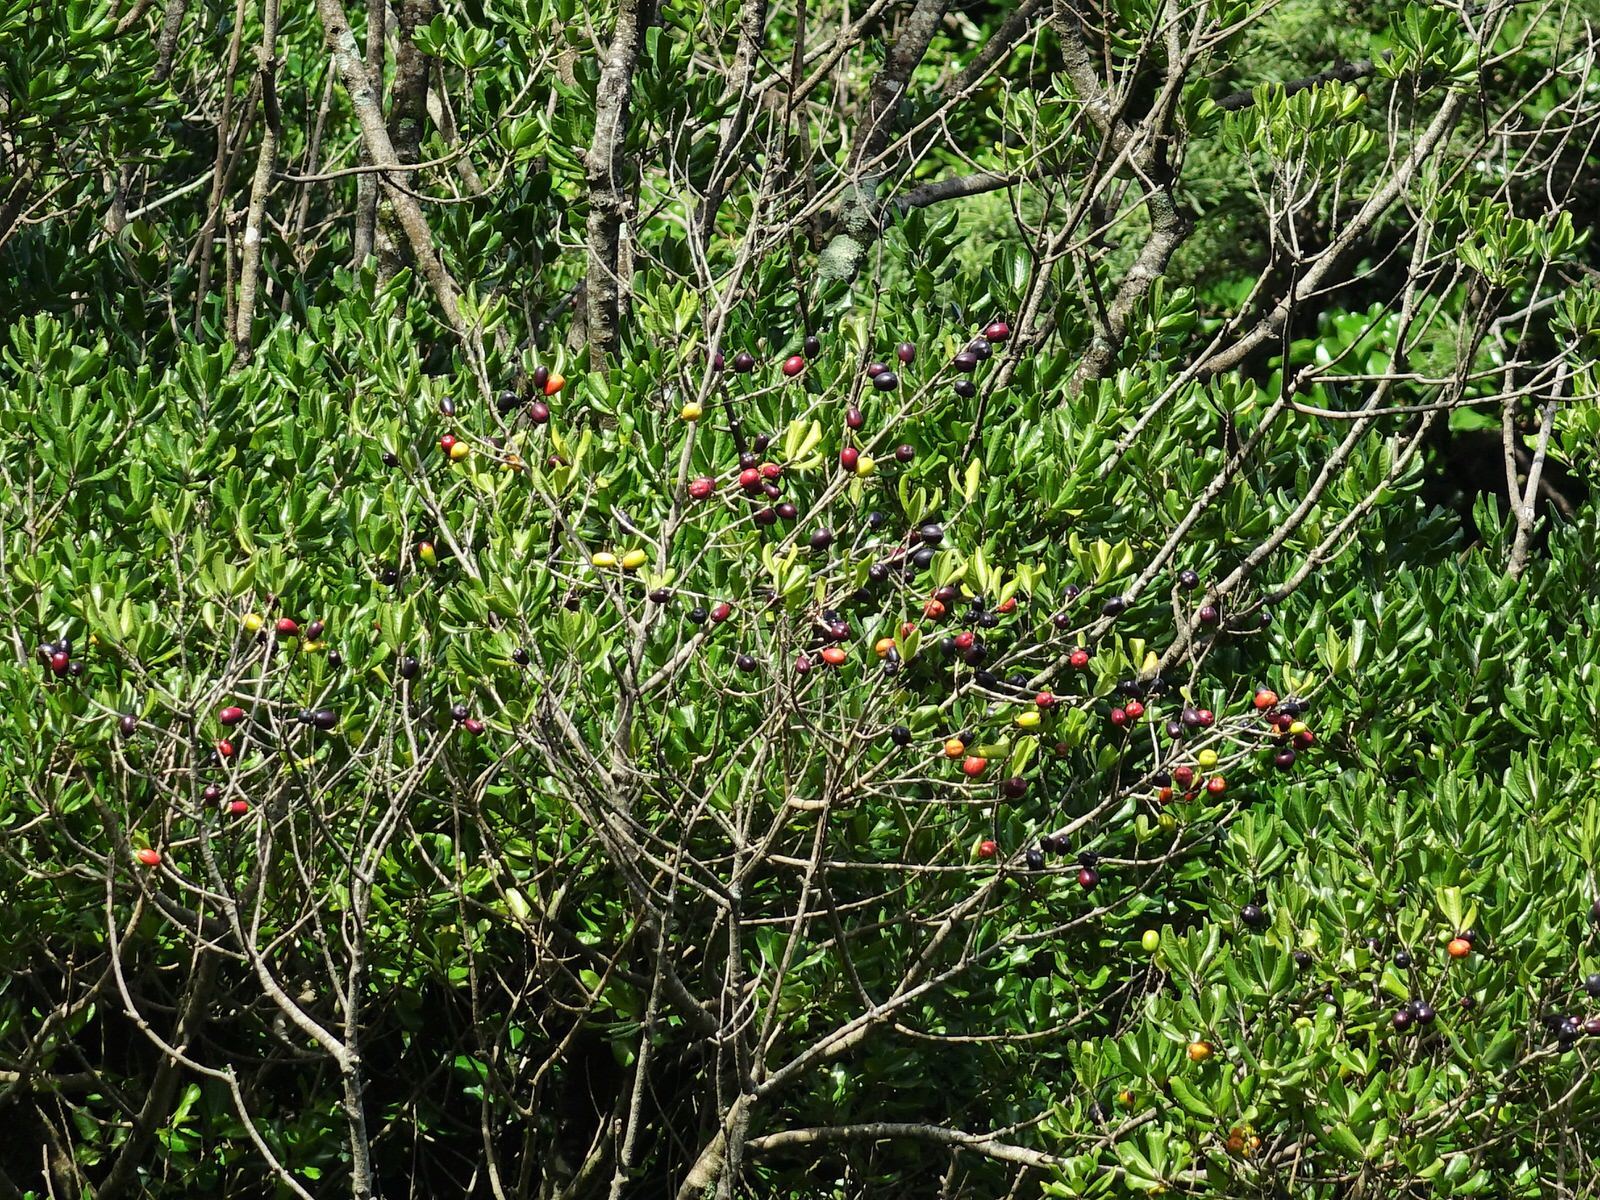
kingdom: Plantae
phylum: Tracheophyta
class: Magnoliopsida
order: Ericales
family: Sapotaceae
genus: Planchonella
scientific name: Planchonella costata
